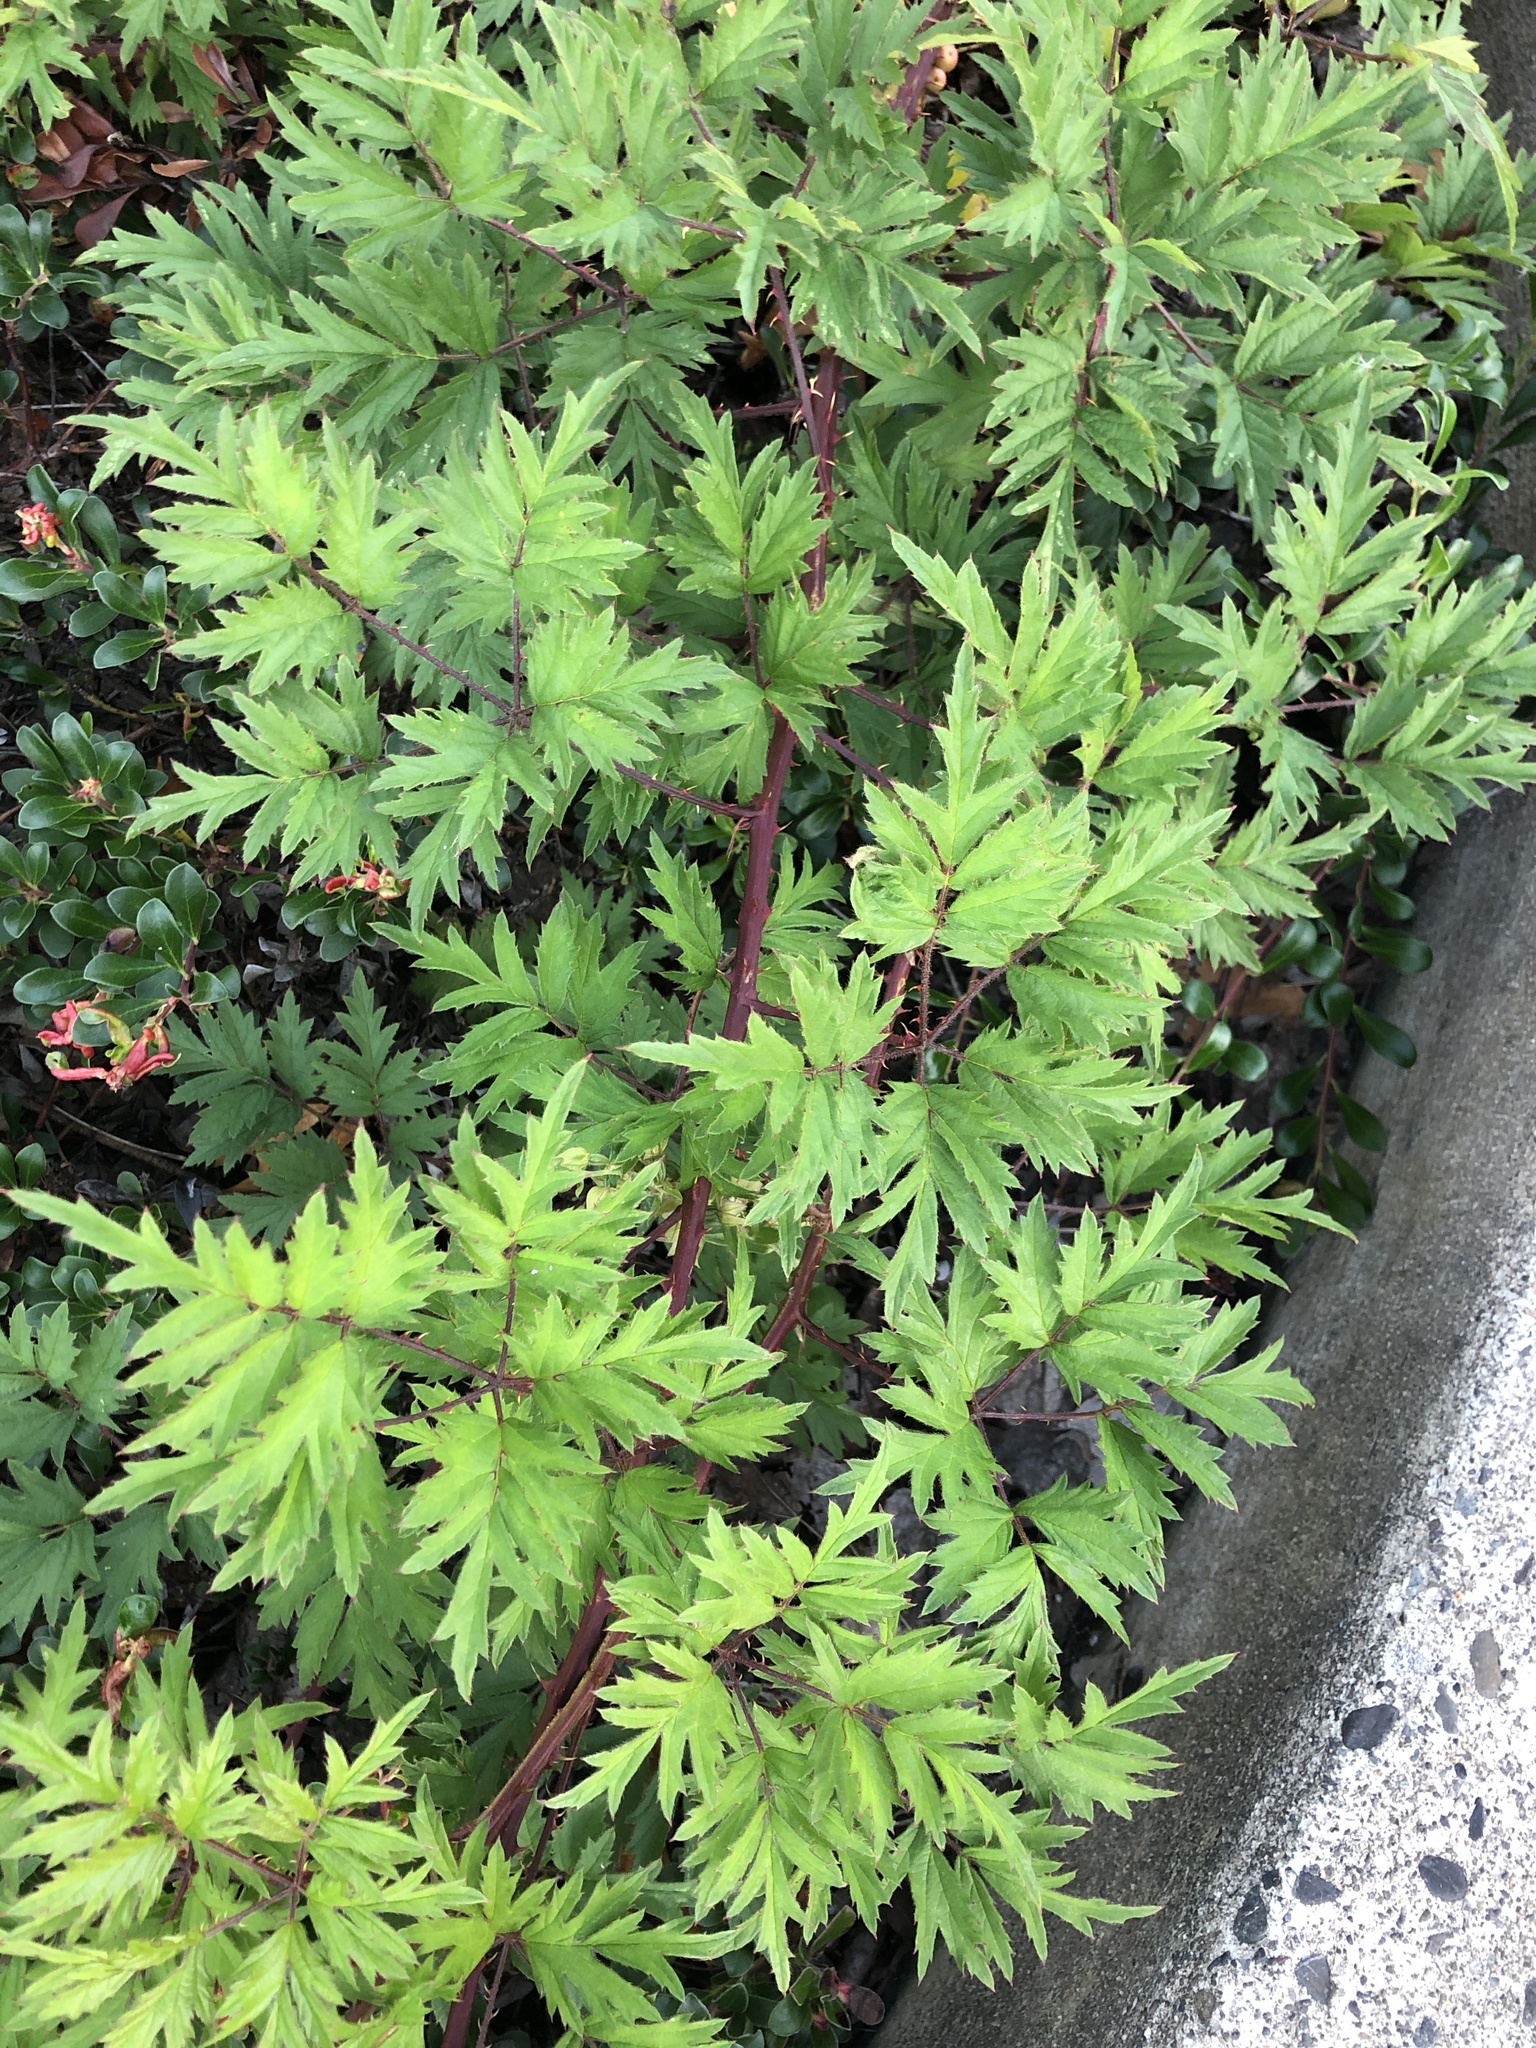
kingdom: Plantae
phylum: Tracheophyta
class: Magnoliopsida
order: Rosales
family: Rosaceae
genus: Rubus
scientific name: Rubus laciniatus
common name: Evergreen blackberry
